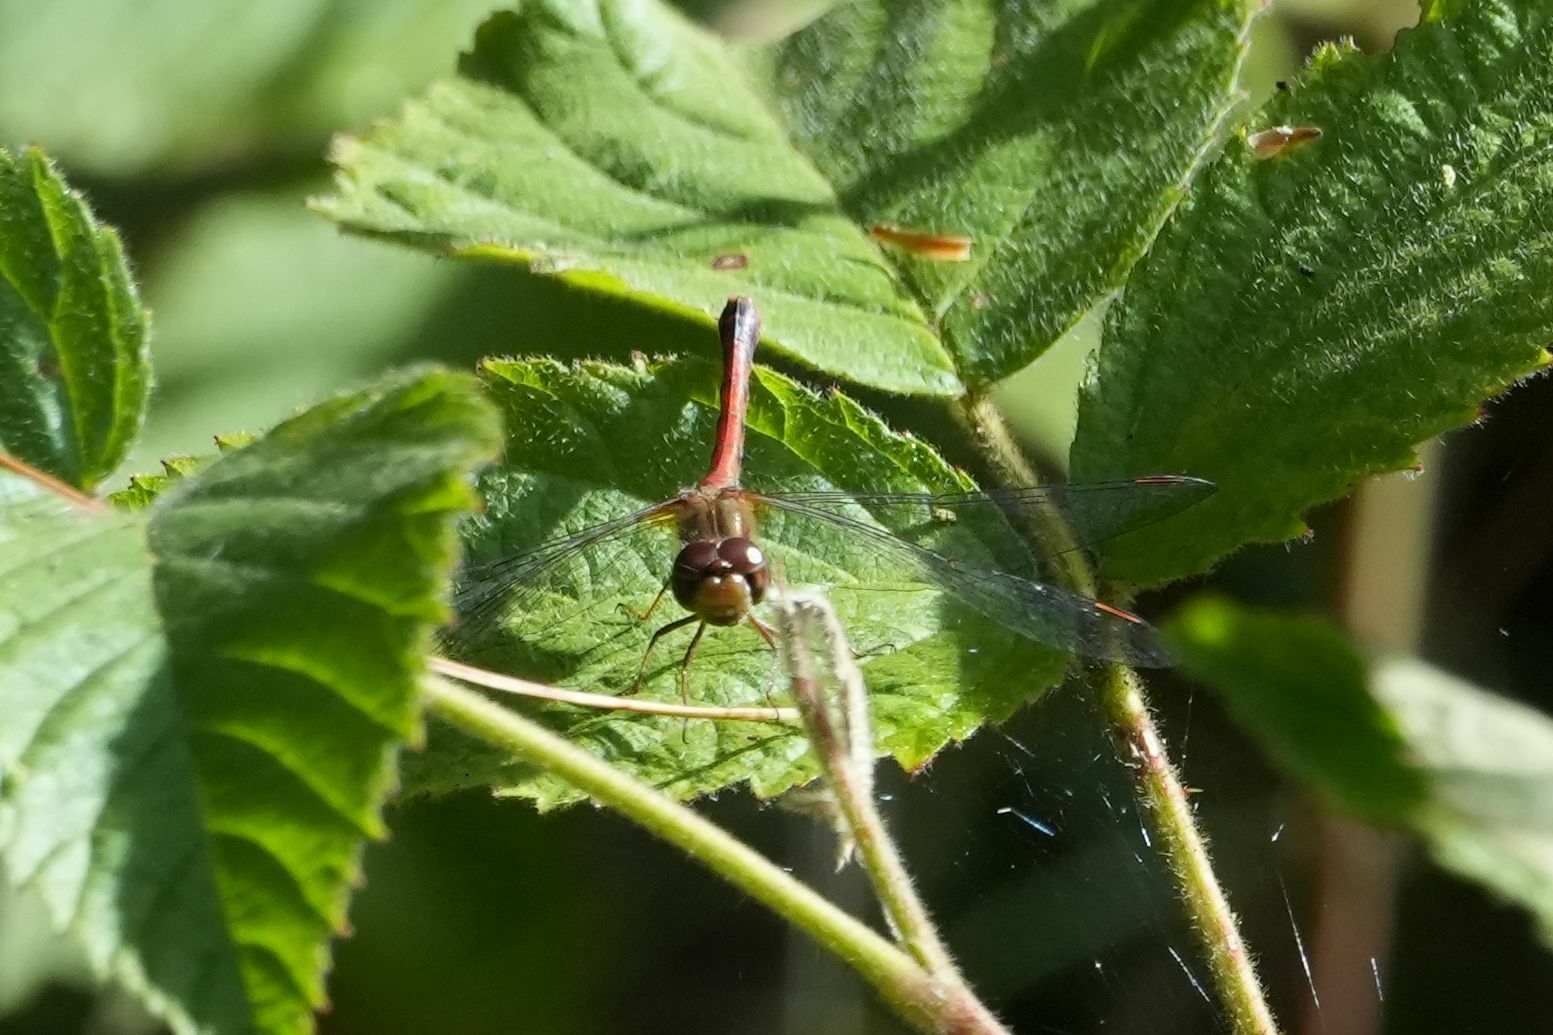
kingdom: Animalia
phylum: Arthropoda
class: Insecta
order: Odonata
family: Libellulidae
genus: Sympetrum
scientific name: Sympetrum vicinum
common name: Autumn meadowhawk
